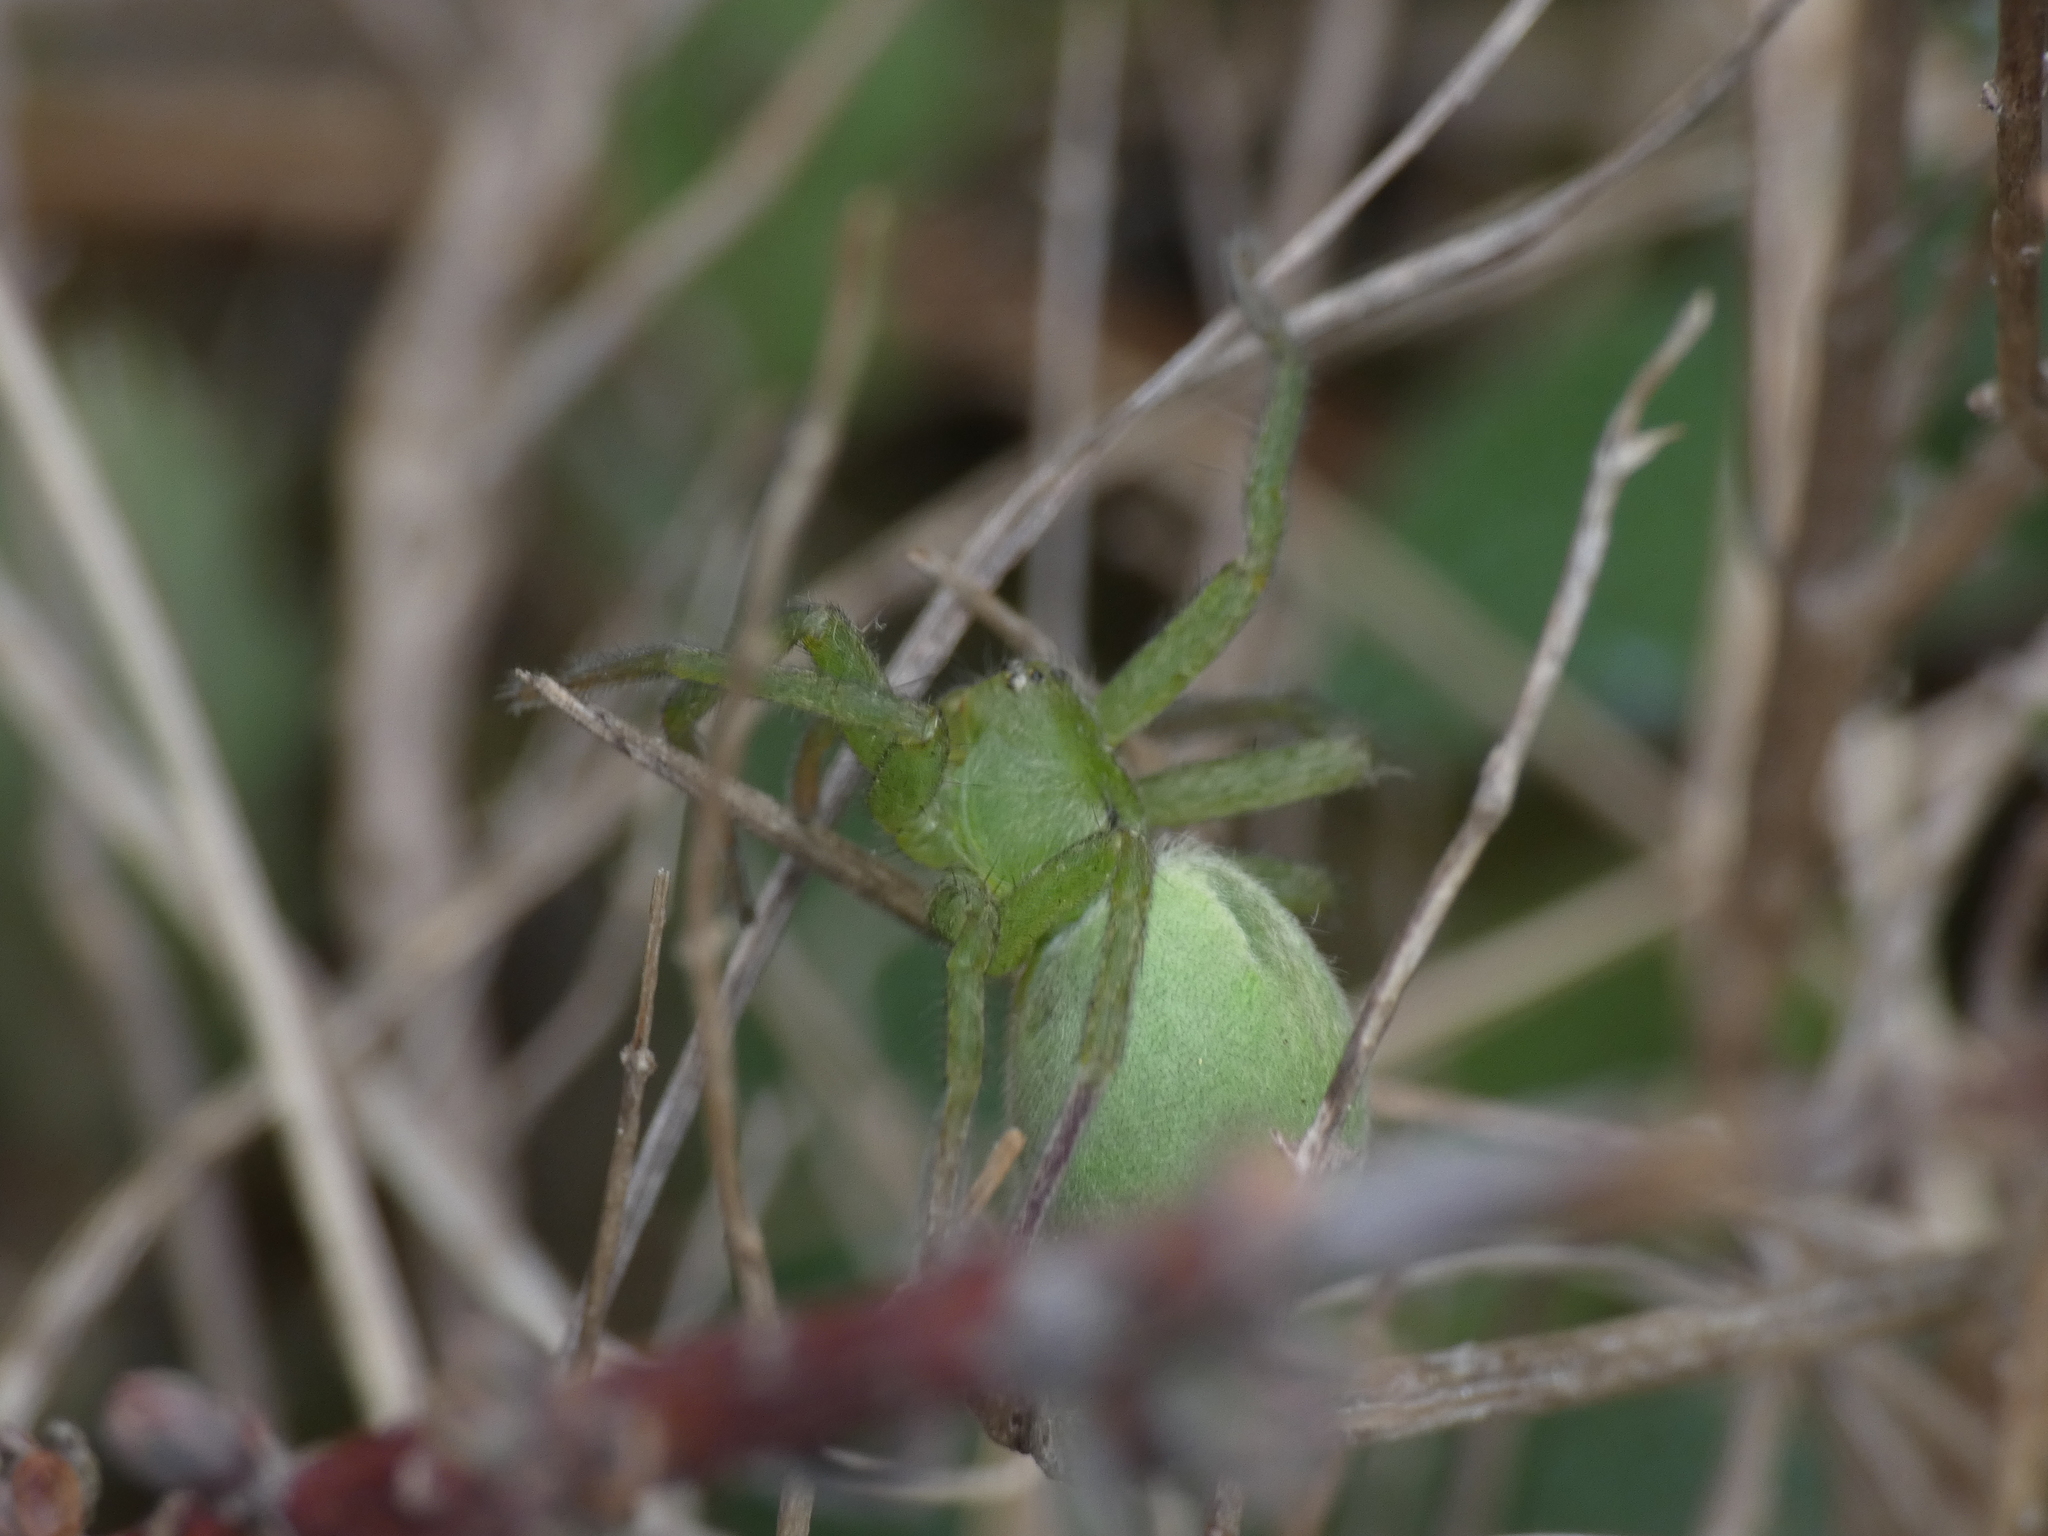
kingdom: Animalia
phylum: Arthropoda
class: Arachnida
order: Araneae
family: Sparassidae
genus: Micrommata
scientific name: Micrommata ligurina
